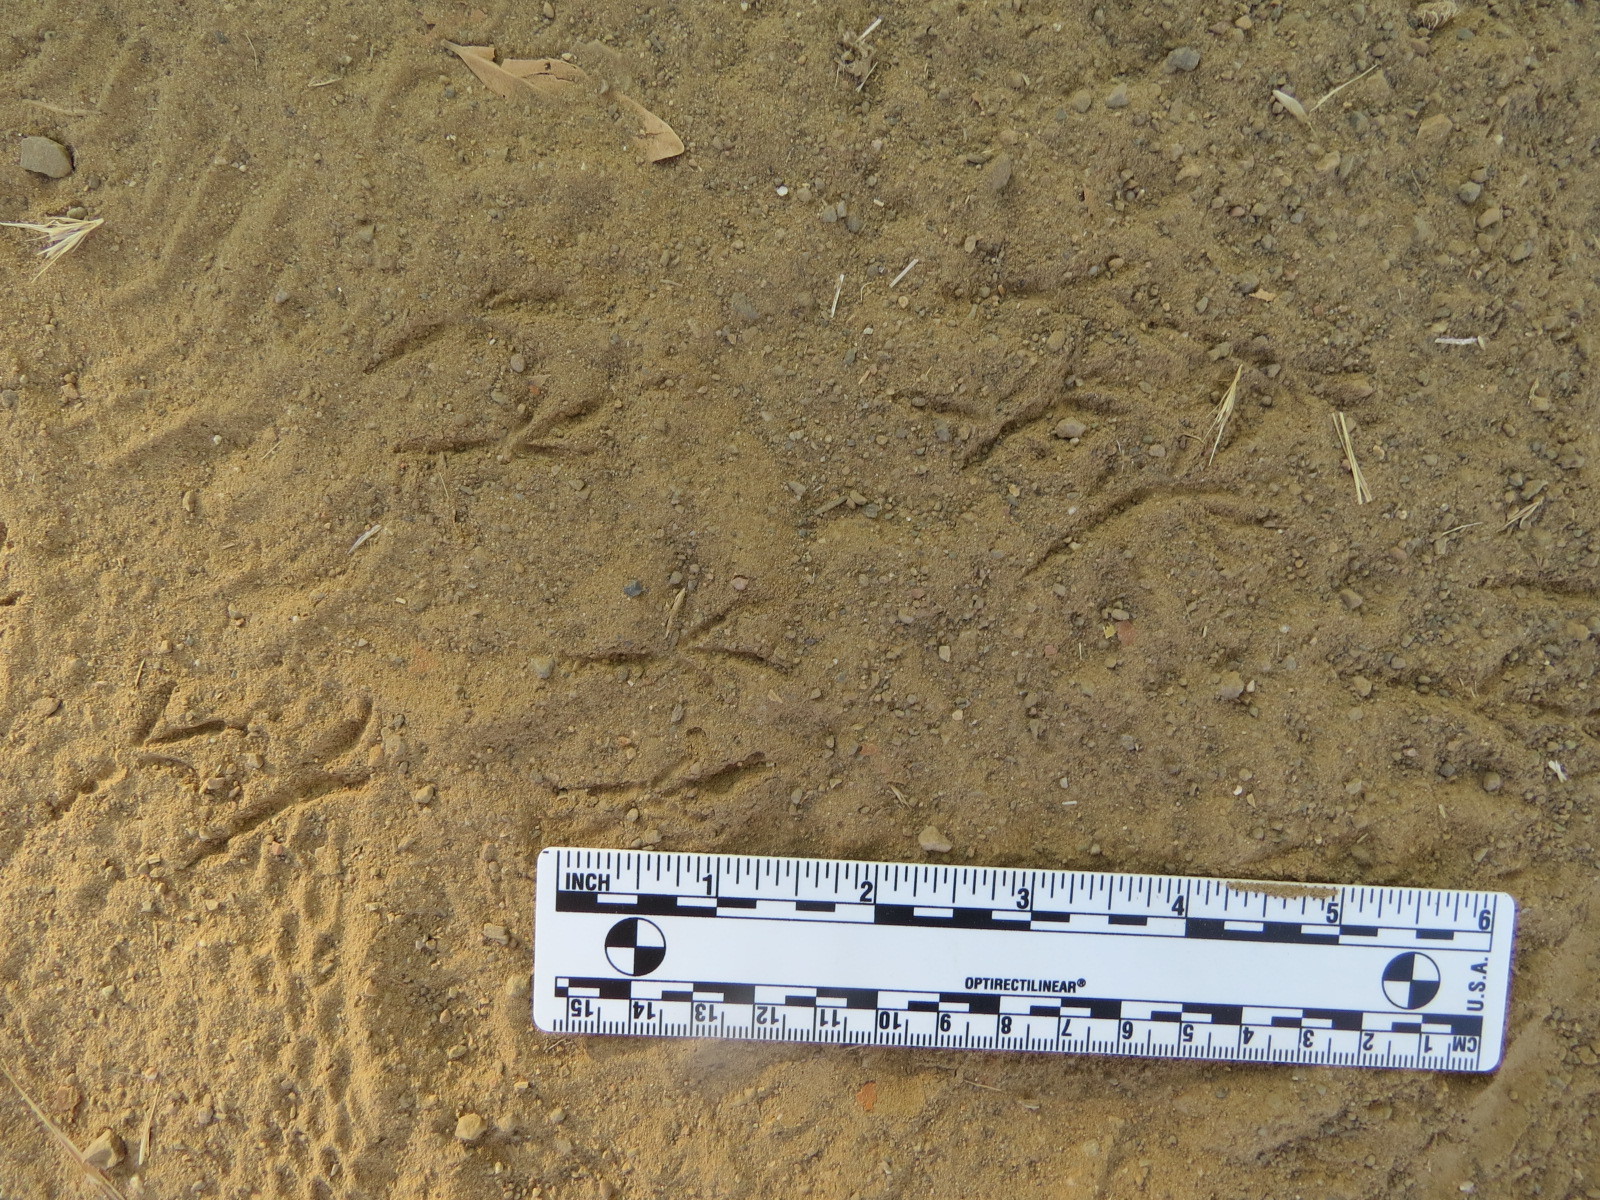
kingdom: Animalia
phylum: Chordata
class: Aves
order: Passeriformes
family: Passerellidae
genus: Junco
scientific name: Junco hyemalis
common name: Dark-eyed junco
